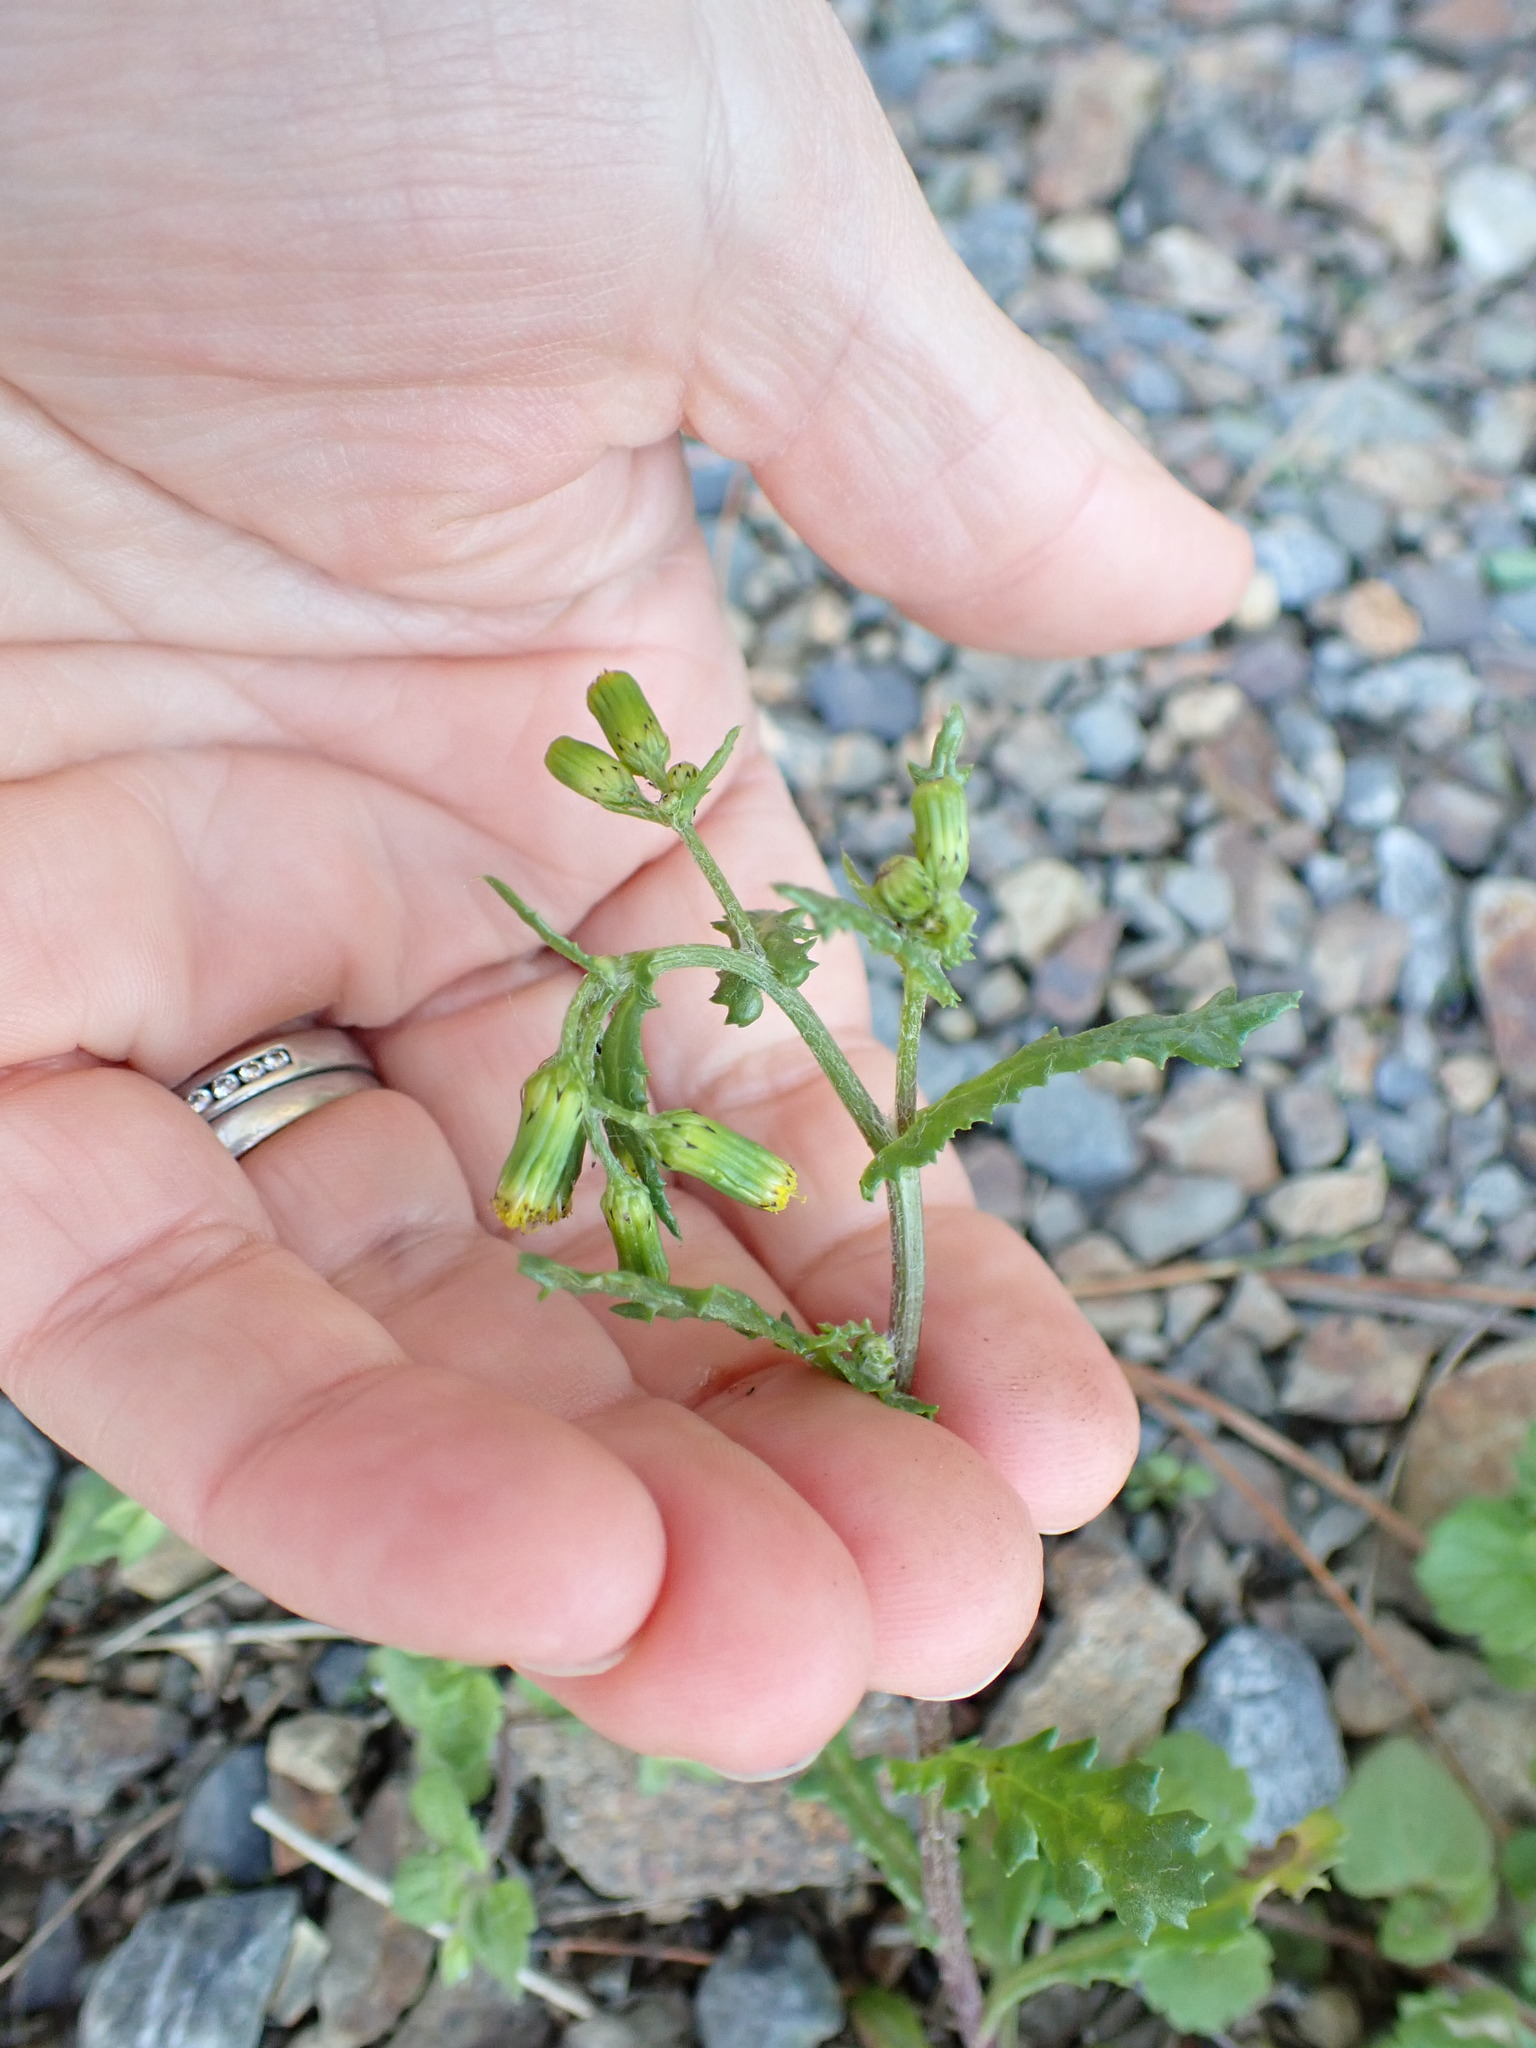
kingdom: Plantae
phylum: Tracheophyta
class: Magnoliopsida
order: Asterales
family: Asteraceae
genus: Senecio
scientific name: Senecio vulgaris
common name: Old-man-in-the-spring
